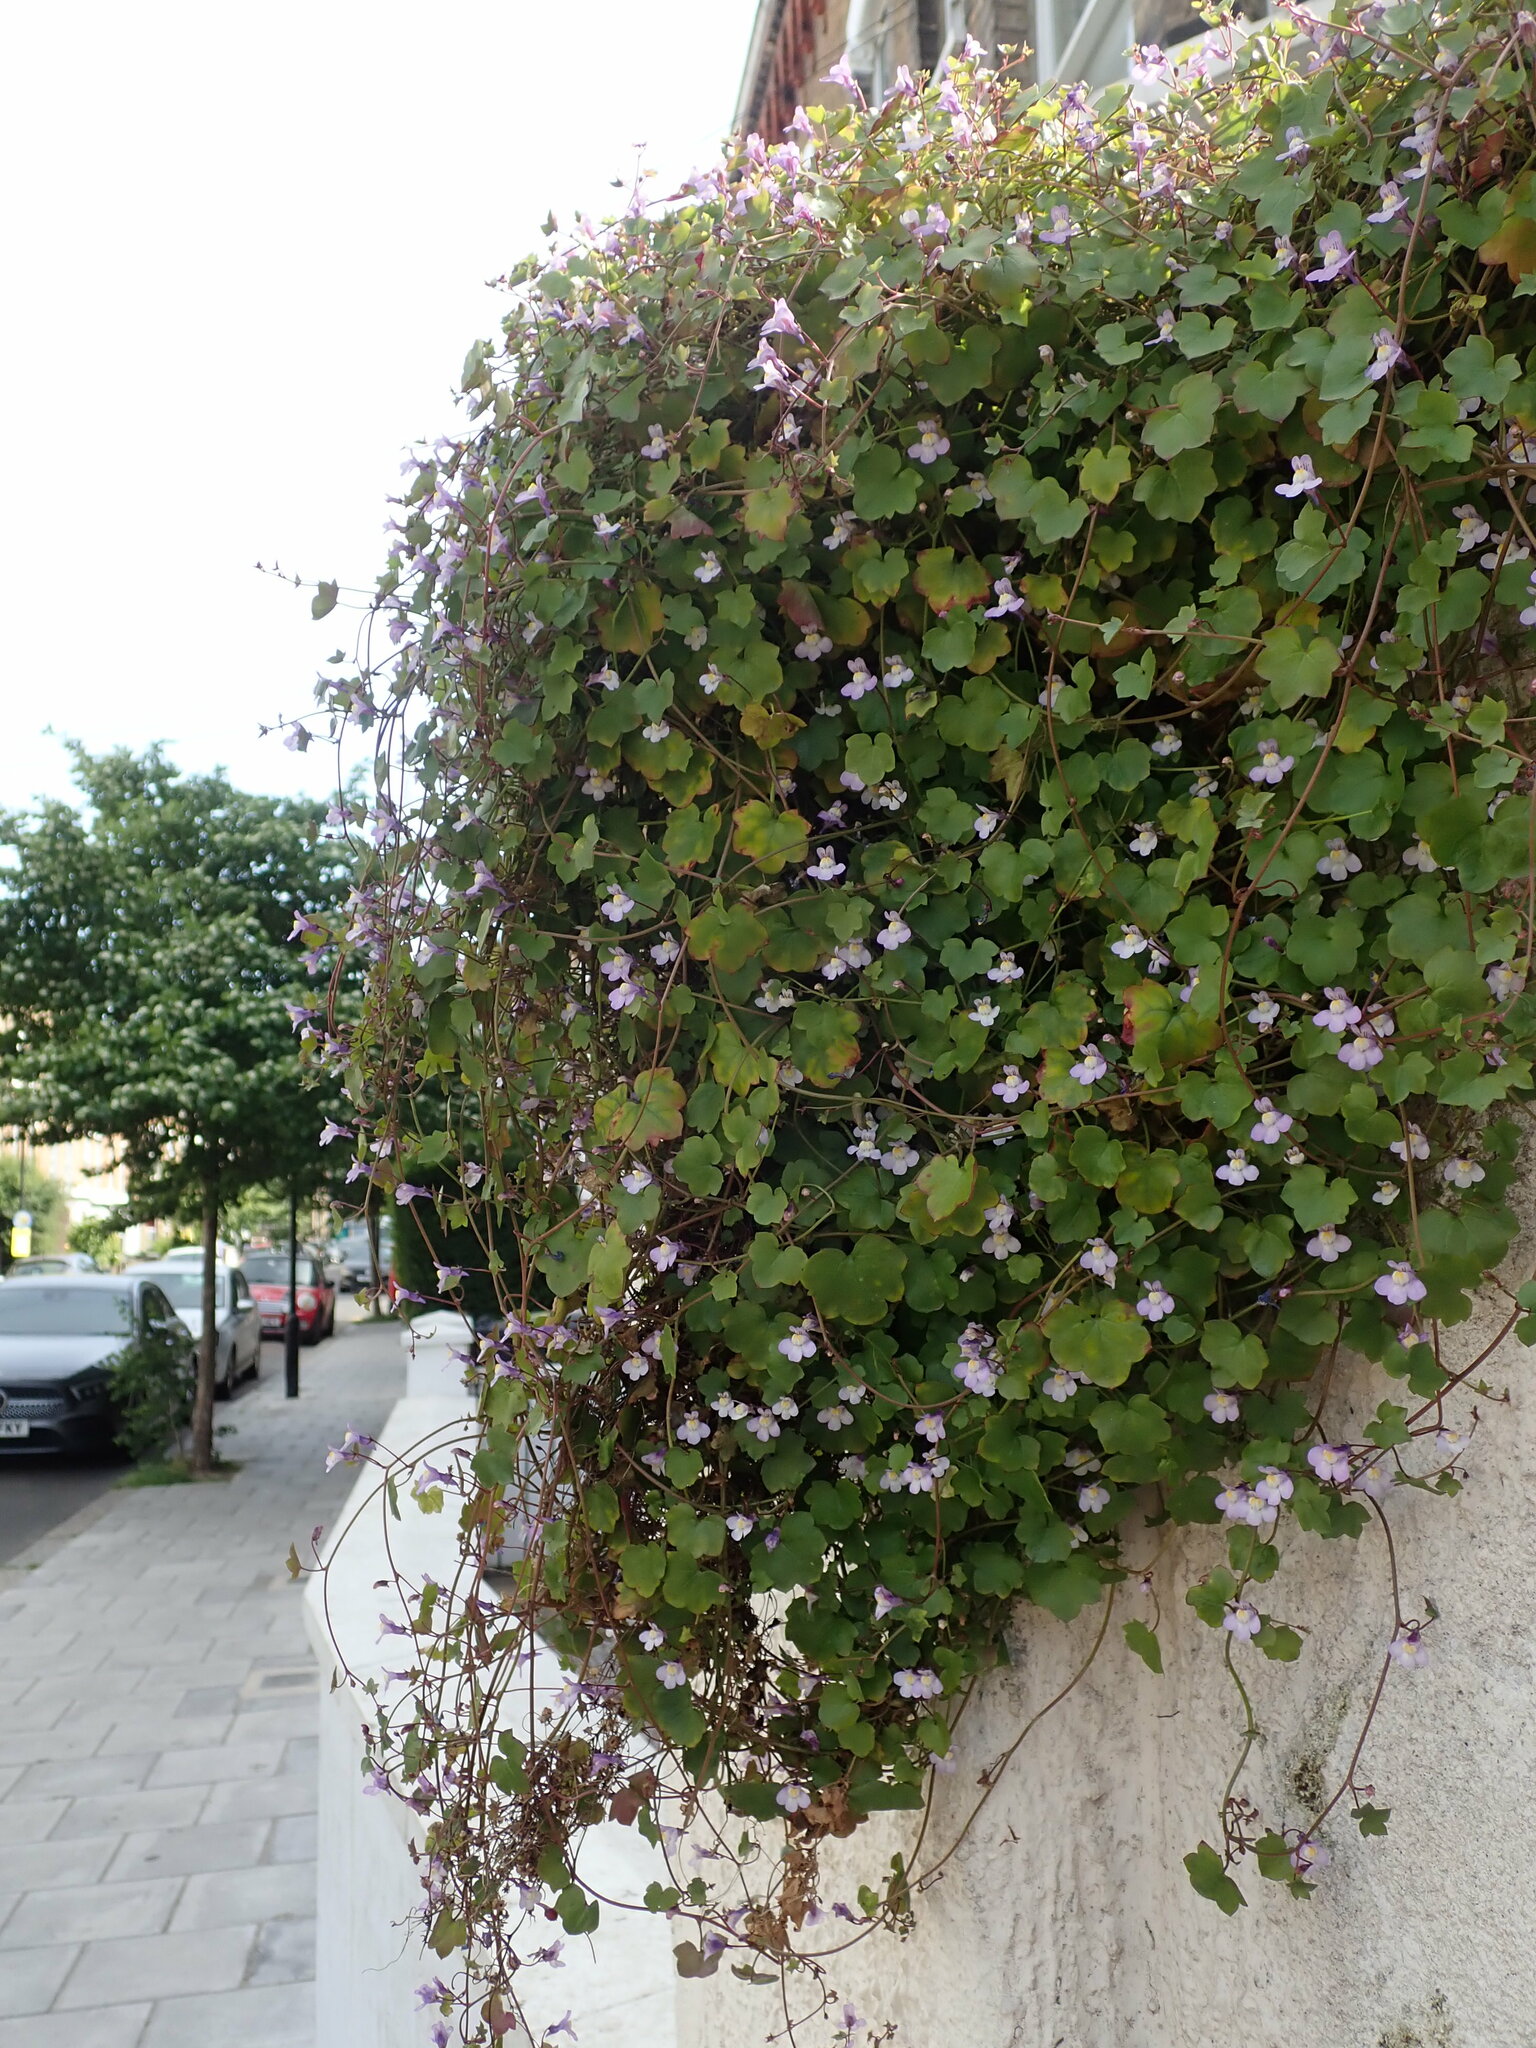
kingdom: Plantae
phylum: Tracheophyta
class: Magnoliopsida
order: Lamiales
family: Plantaginaceae
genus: Cymbalaria
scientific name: Cymbalaria muralis
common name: Ivy-leaved toadflax
